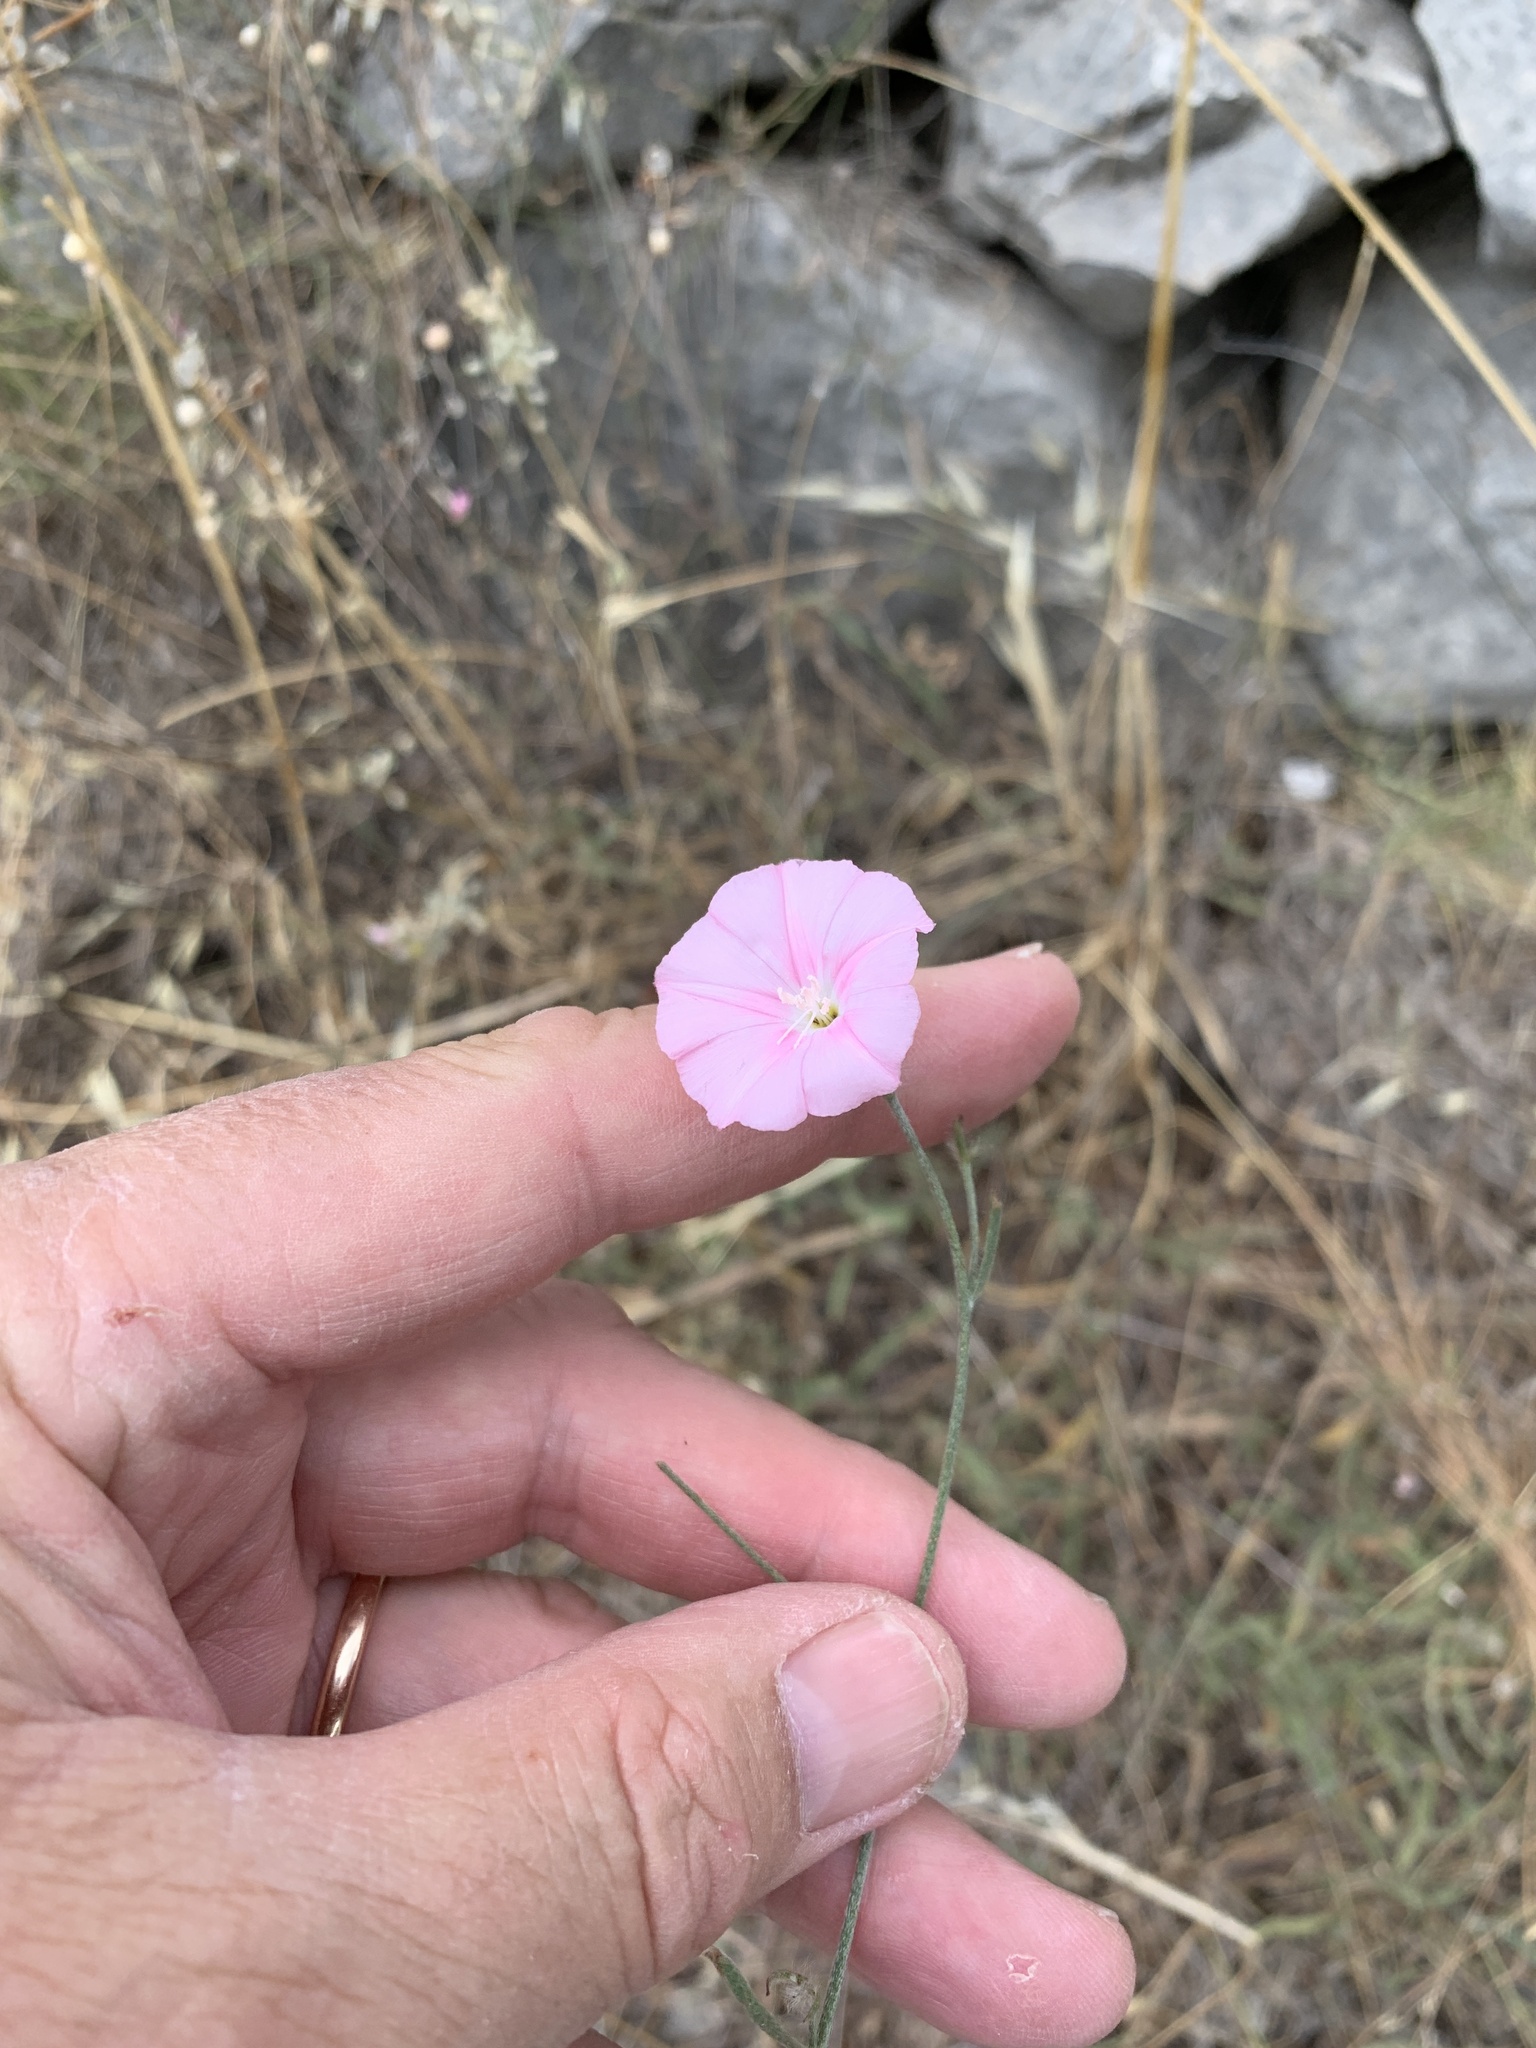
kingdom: Plantae
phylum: Tracheophyta
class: Magnoliopsida
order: Solanales
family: Convolvulaceae
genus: Convolvulus
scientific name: Convolvulus cantabrica
